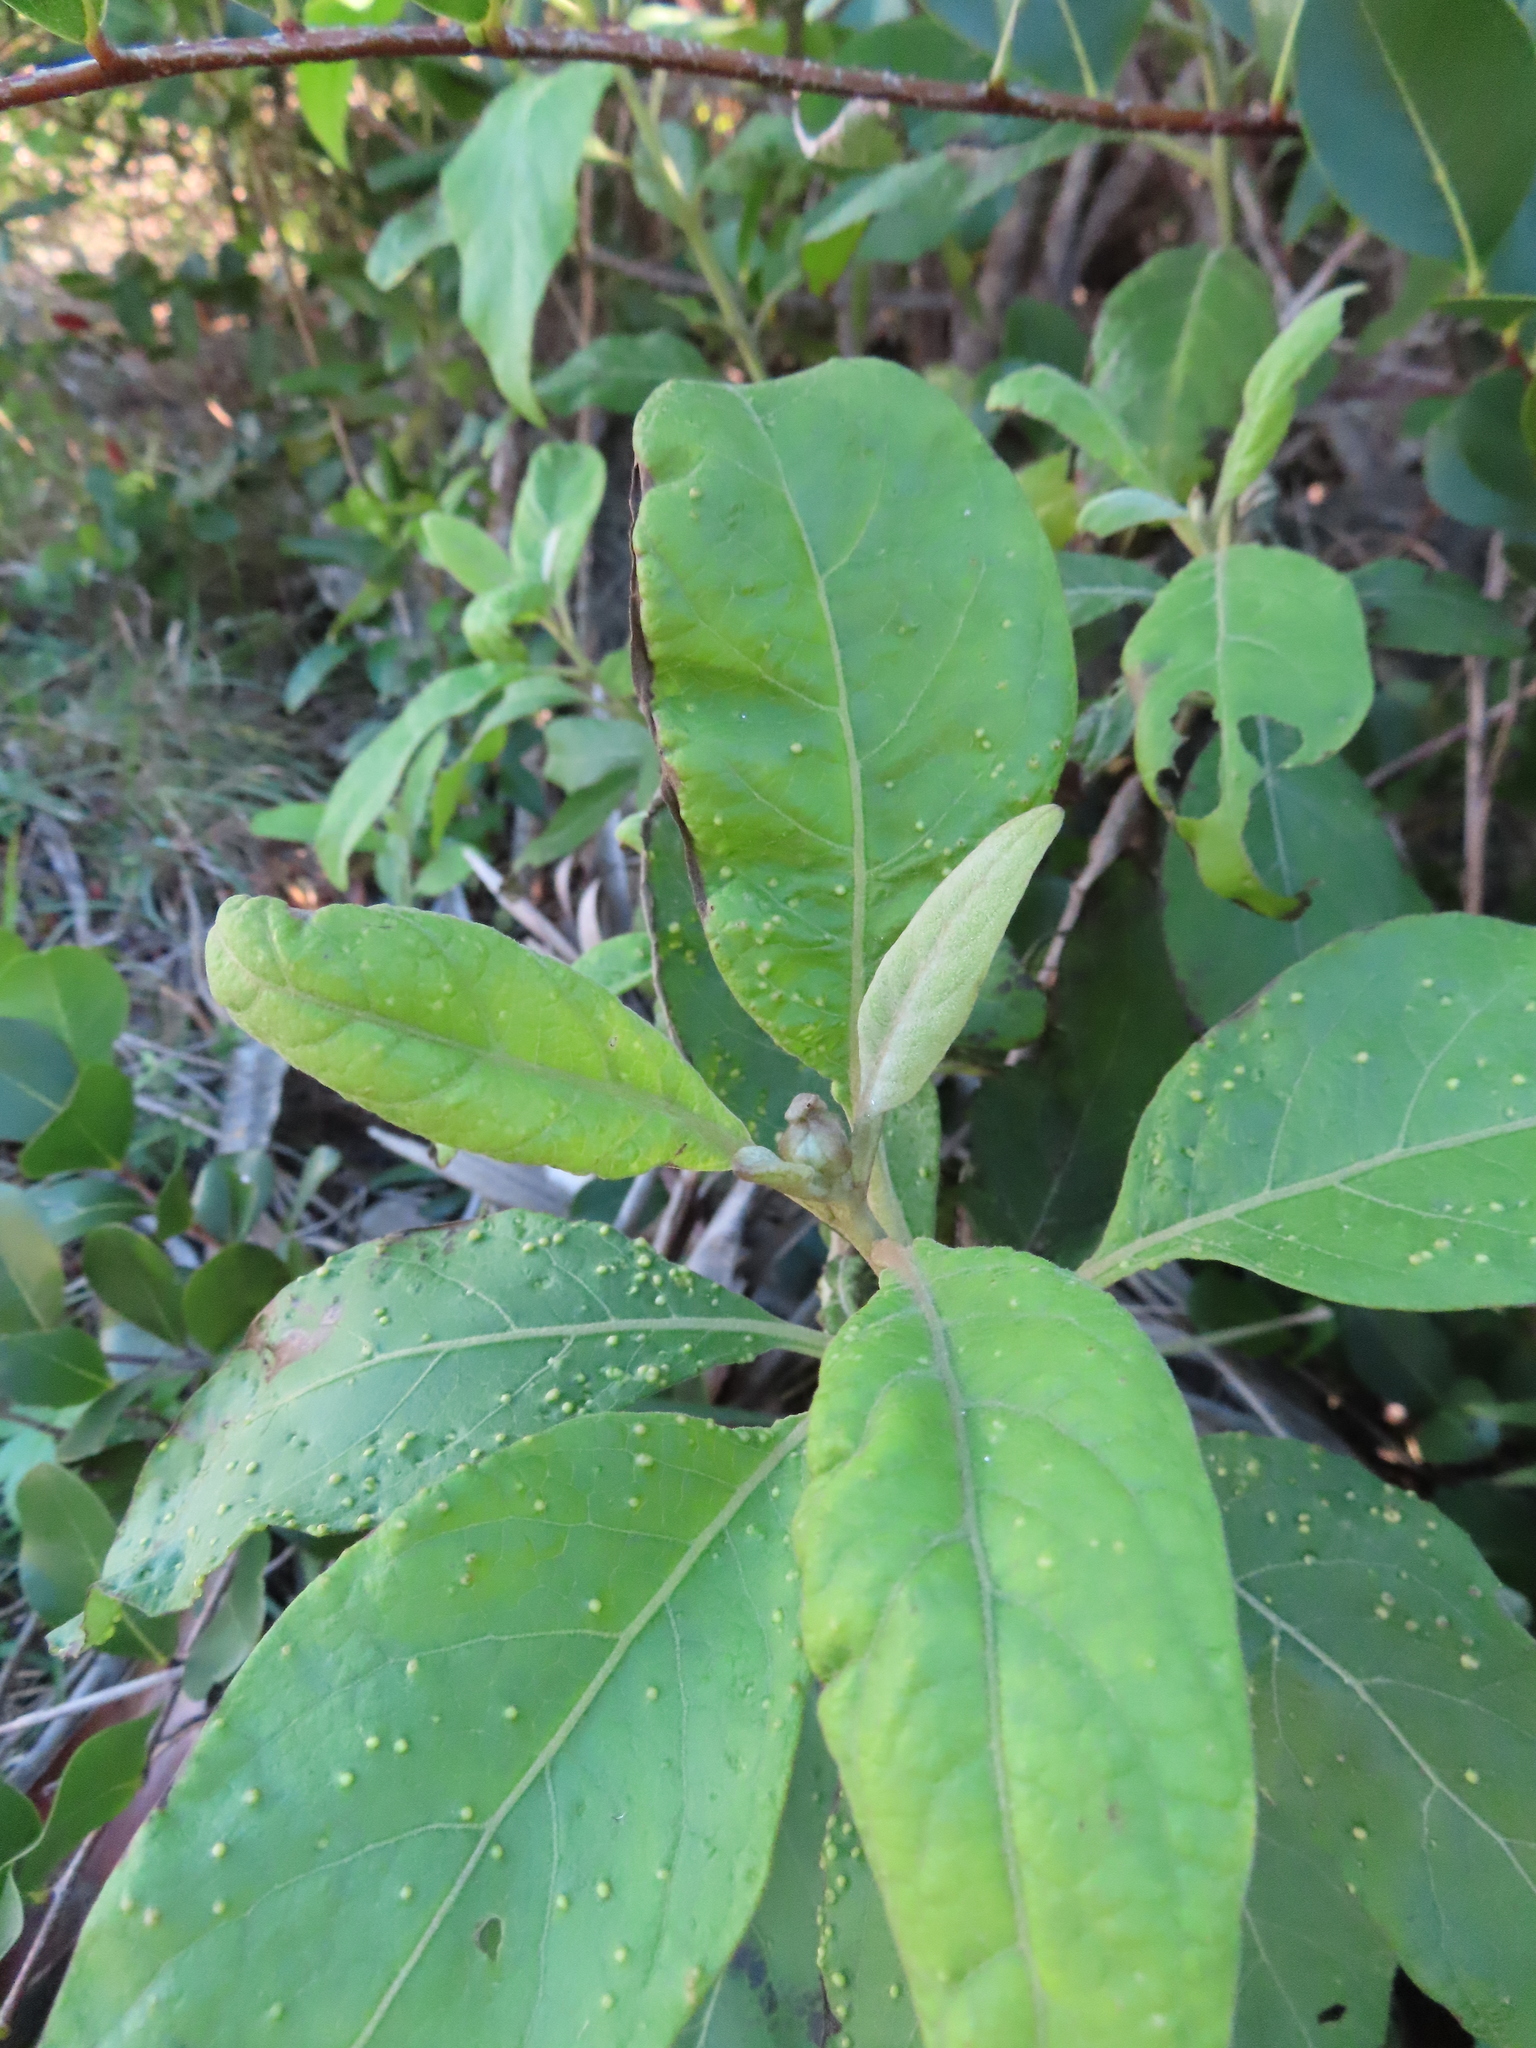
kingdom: Plantae
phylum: Tracheophyta
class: Magnoliopsida
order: Asterales
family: Asteraceae
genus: Pluchea
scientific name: Pluchea carolinensis
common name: Marsh fleabane
